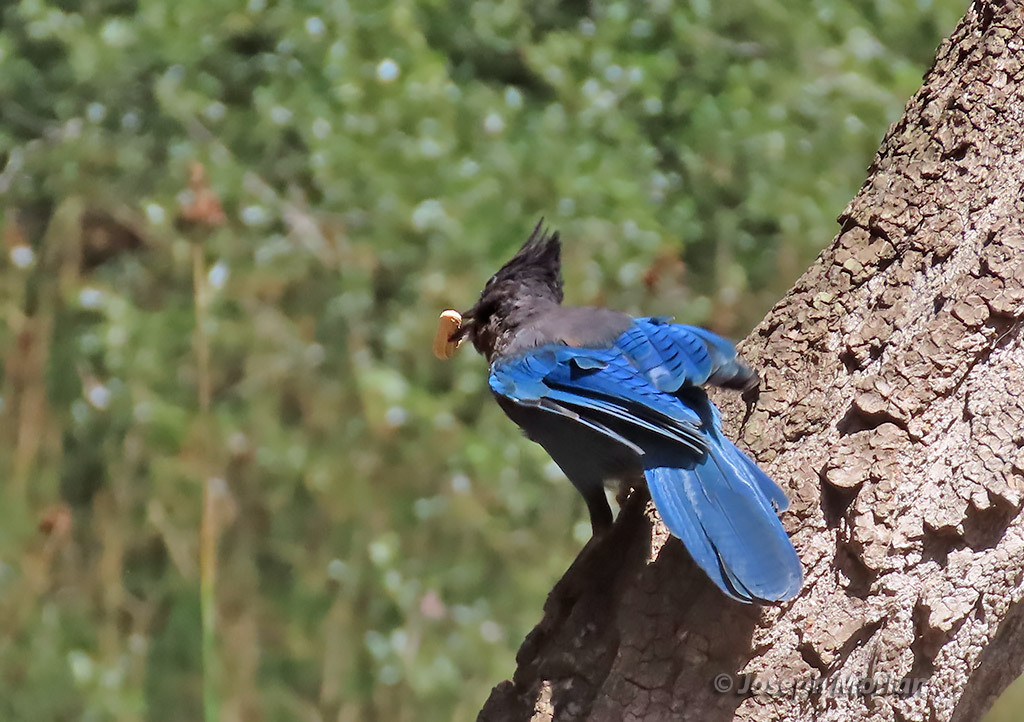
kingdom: Animalia
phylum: Chordata
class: Aves
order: Passeriformes
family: Corvidae
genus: Cyanocitta
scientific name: Cyanocitta stelleri
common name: Steller's jay
